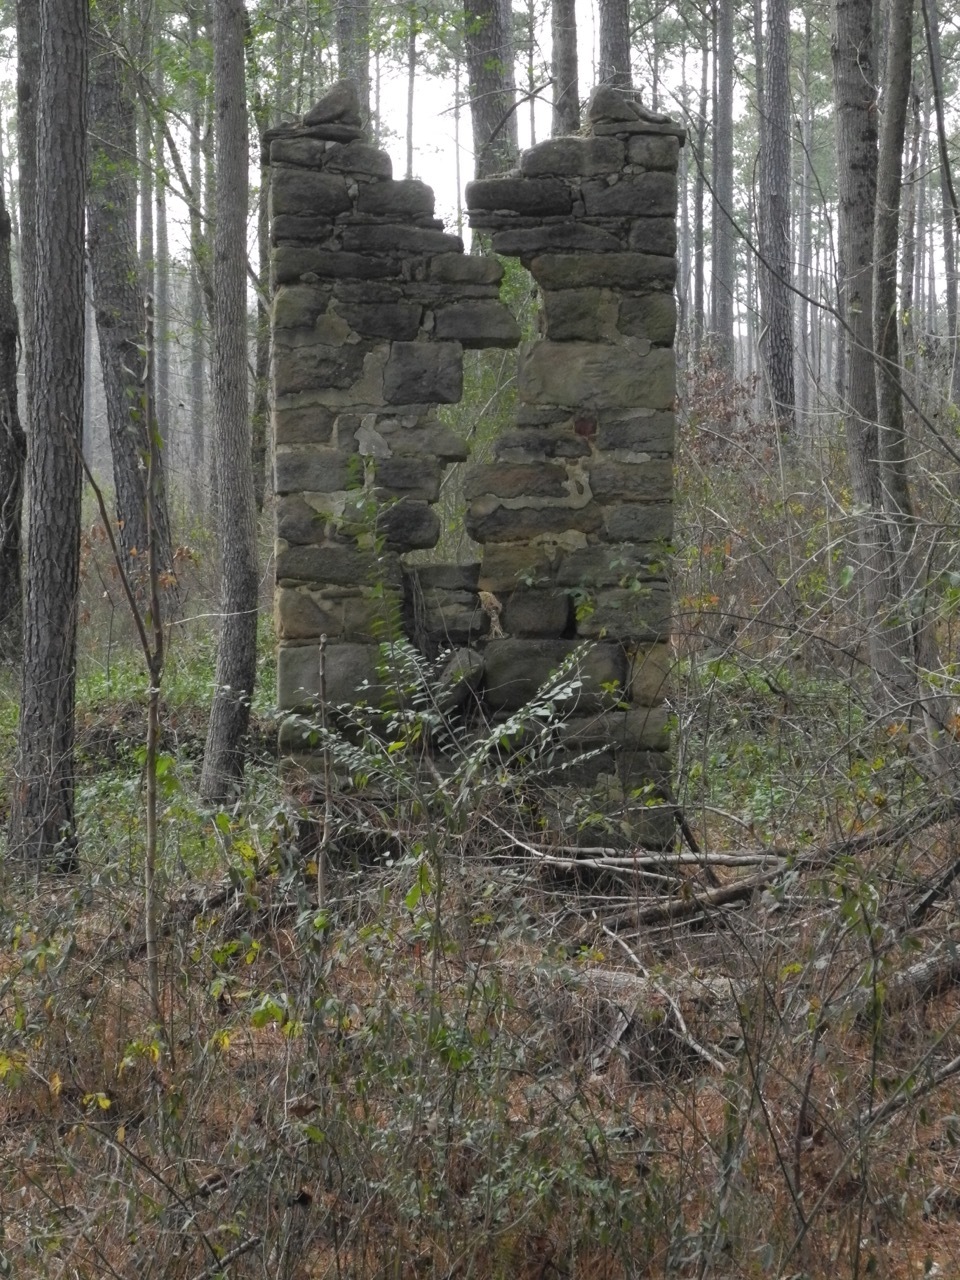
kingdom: Plantae
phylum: Tracheophyta
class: Polypodiopsida
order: Polypodiales
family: Dryopteridaceae
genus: Polystichum
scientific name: Polystichum acrostichoides
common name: Christmas fern
